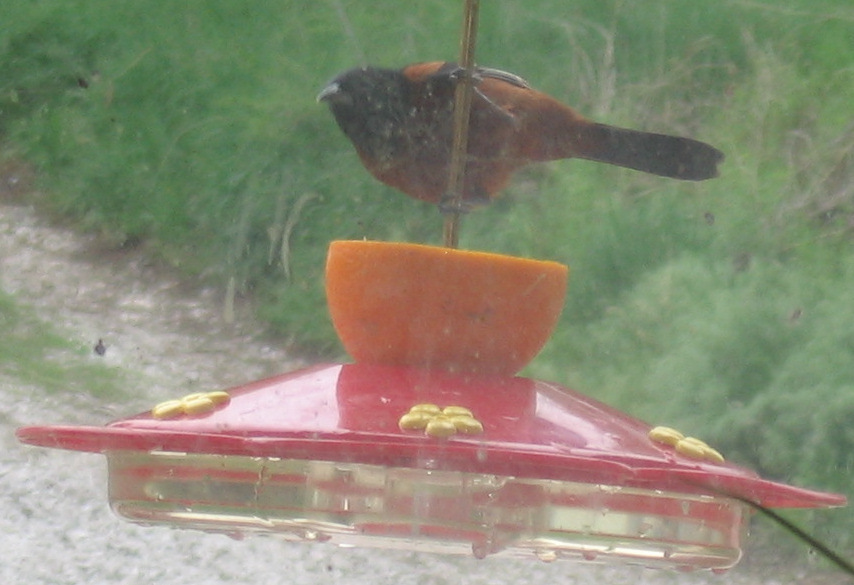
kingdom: Animalia
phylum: Chordata
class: Aves
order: Passeriformes
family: Icteridae
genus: Icterus
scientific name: Icterus spurius
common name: Orchard oriole
